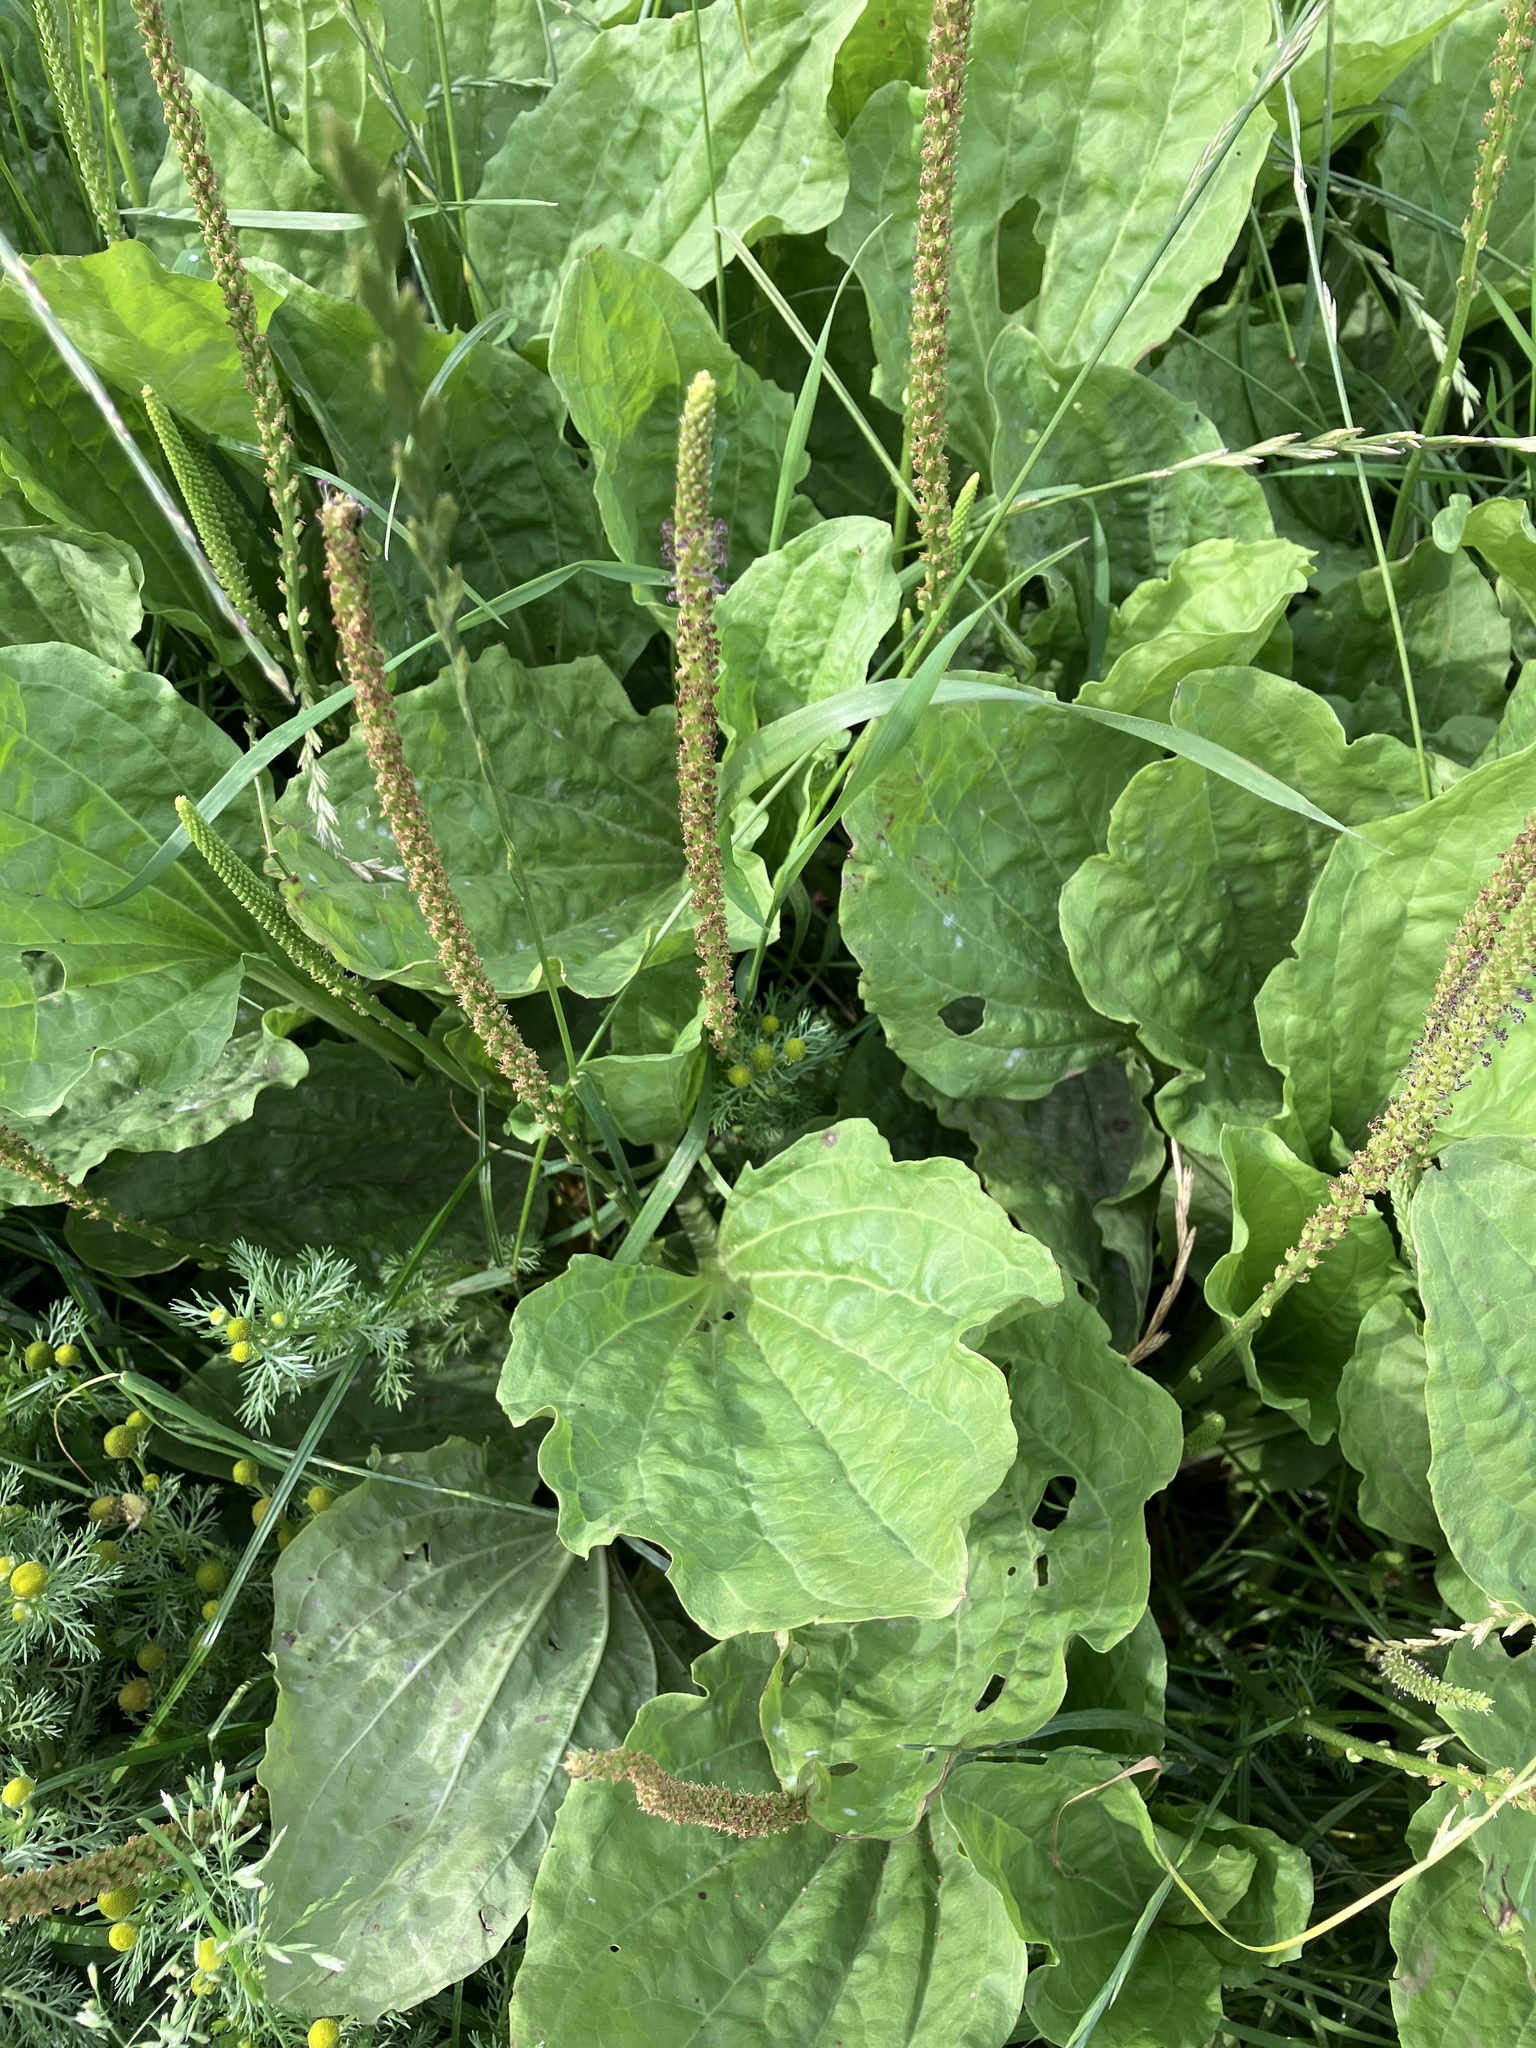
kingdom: Plantae
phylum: Tracheophyta
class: Magnoliopsida
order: Lamiales
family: Plantaginaceae
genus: Plantago
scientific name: Plantago major
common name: Common plantain
